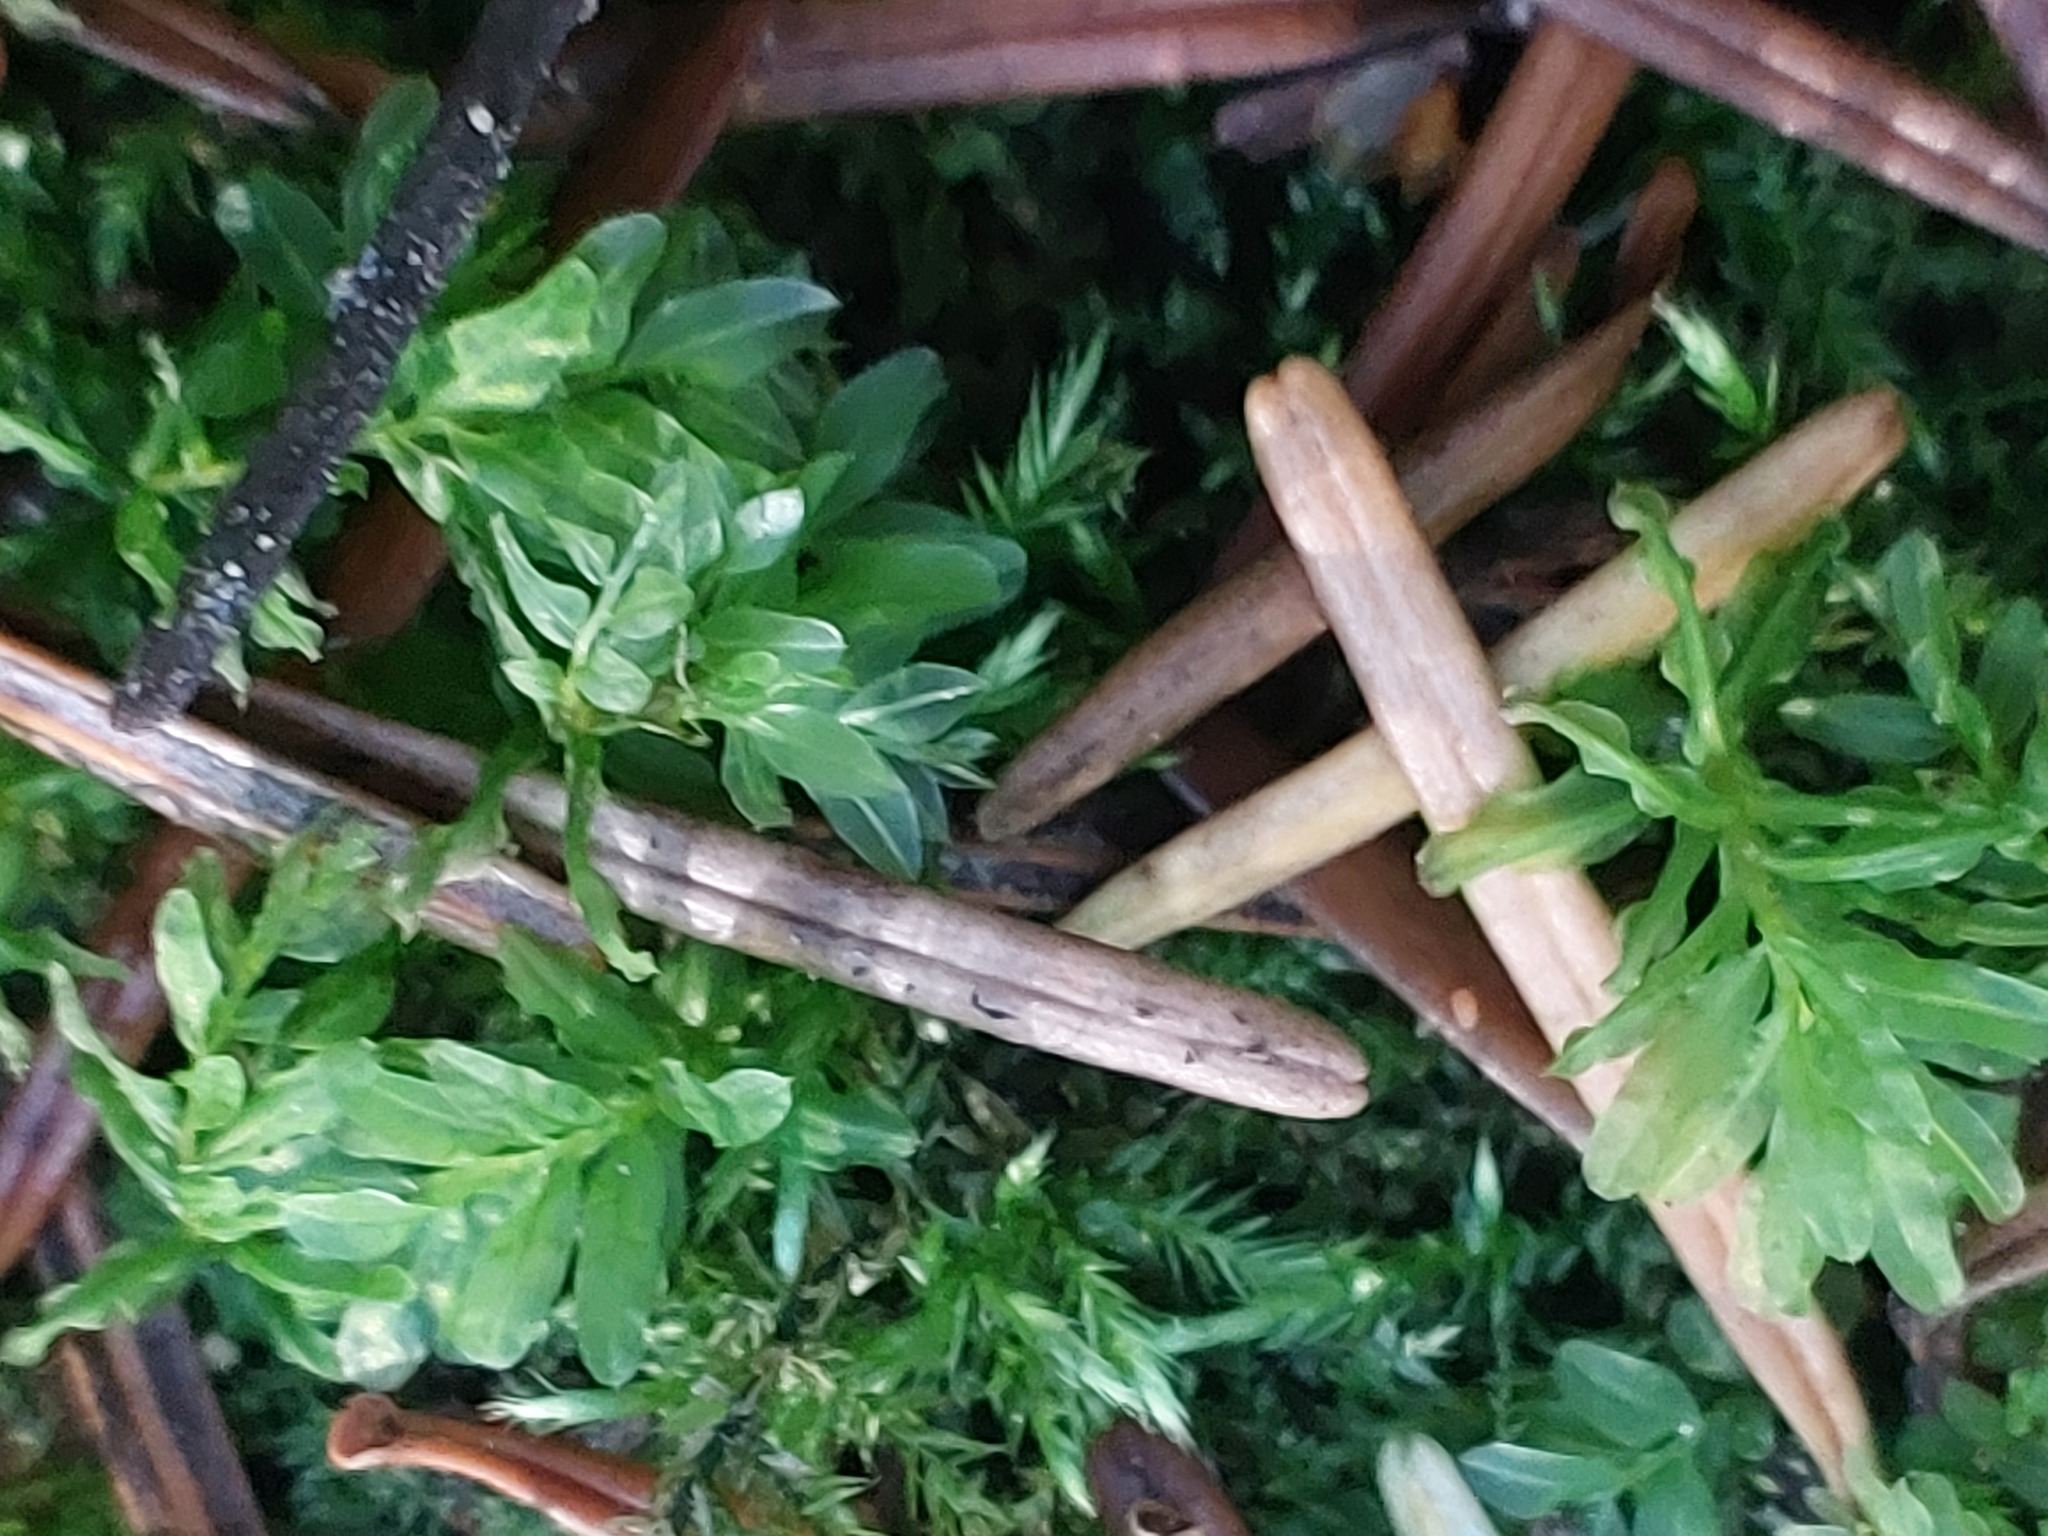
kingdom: Plantae
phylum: Bryophyta
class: Bryopsida
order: Bryales
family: Mniaceae
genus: Plagiomnium
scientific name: Plagiomnium undulatum
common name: Hart's-tongue thyme-moss
